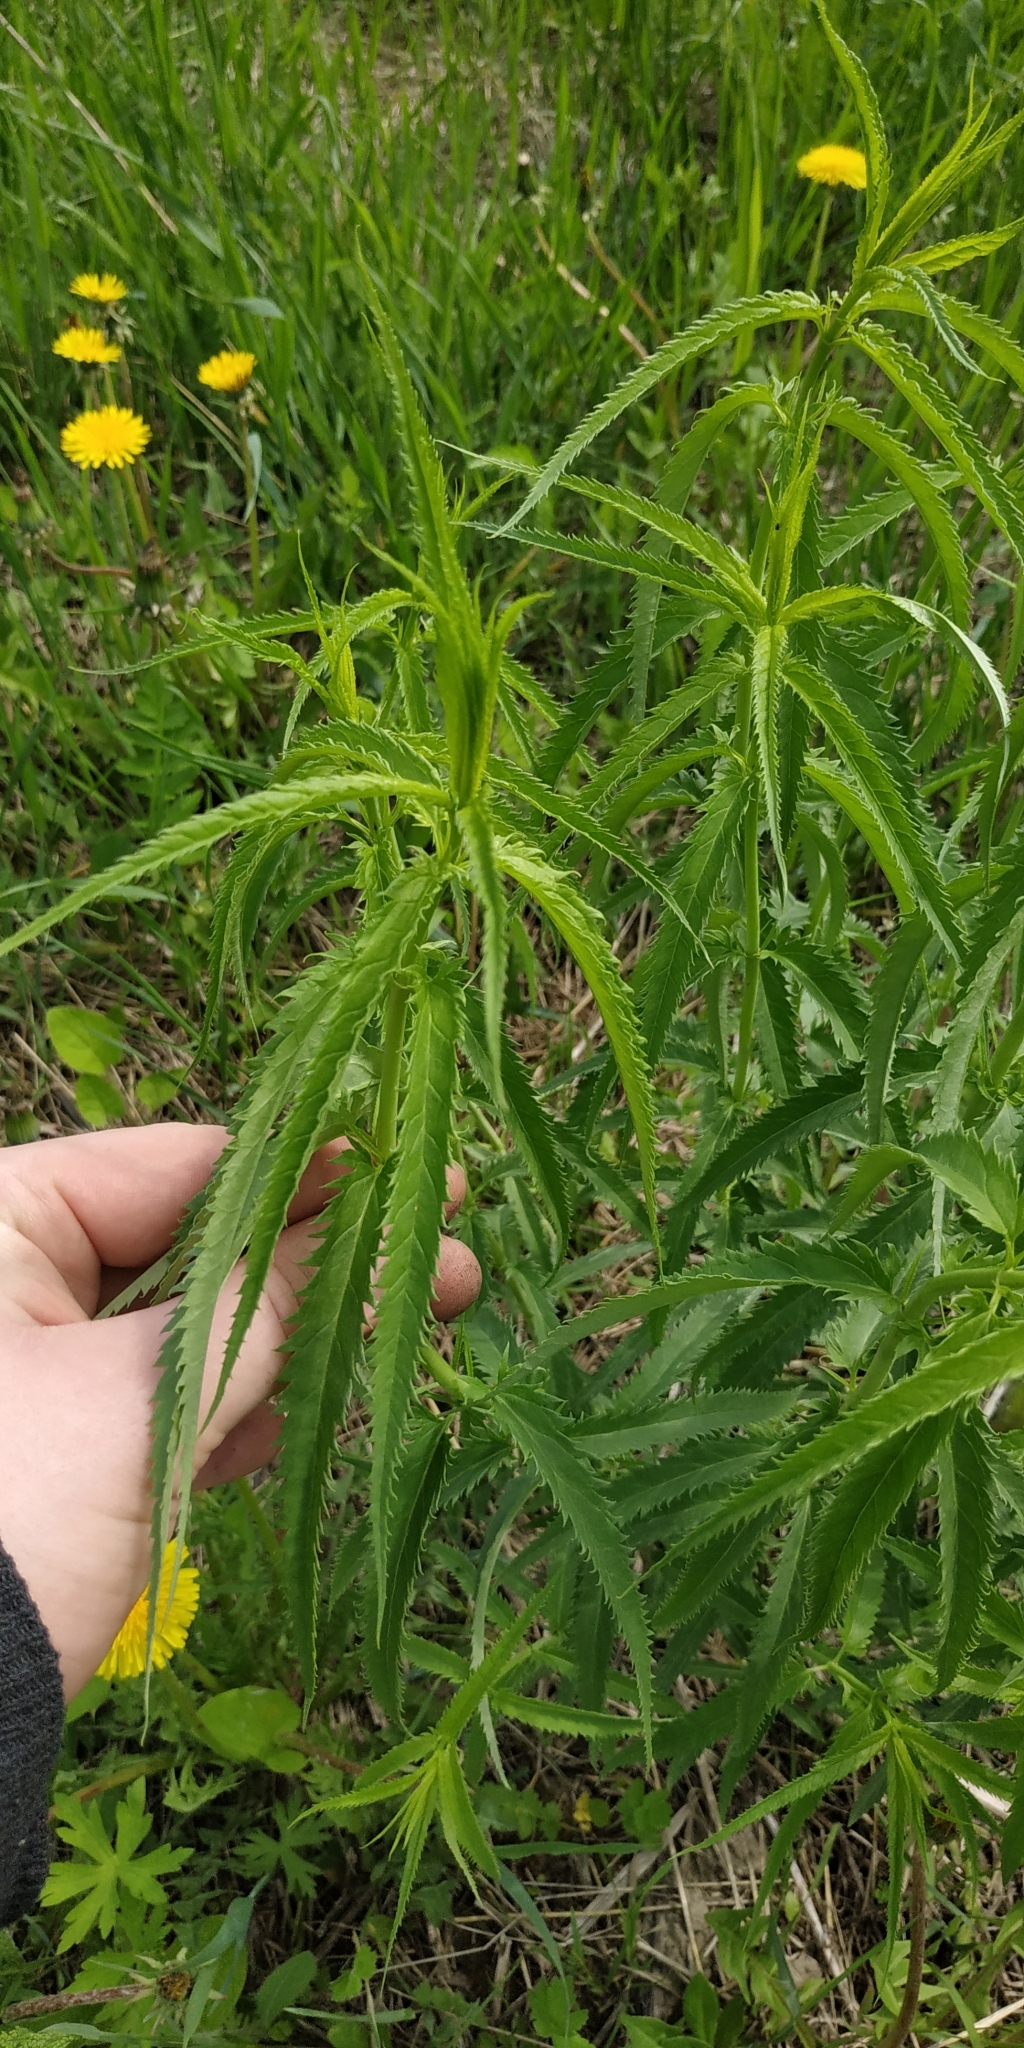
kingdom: Plantae
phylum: Tracheophyta
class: Magnoliopsida
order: Lamiales
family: Plantaginaceae
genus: Veronica
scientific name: Veronica longifolia
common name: Garden speedwell
